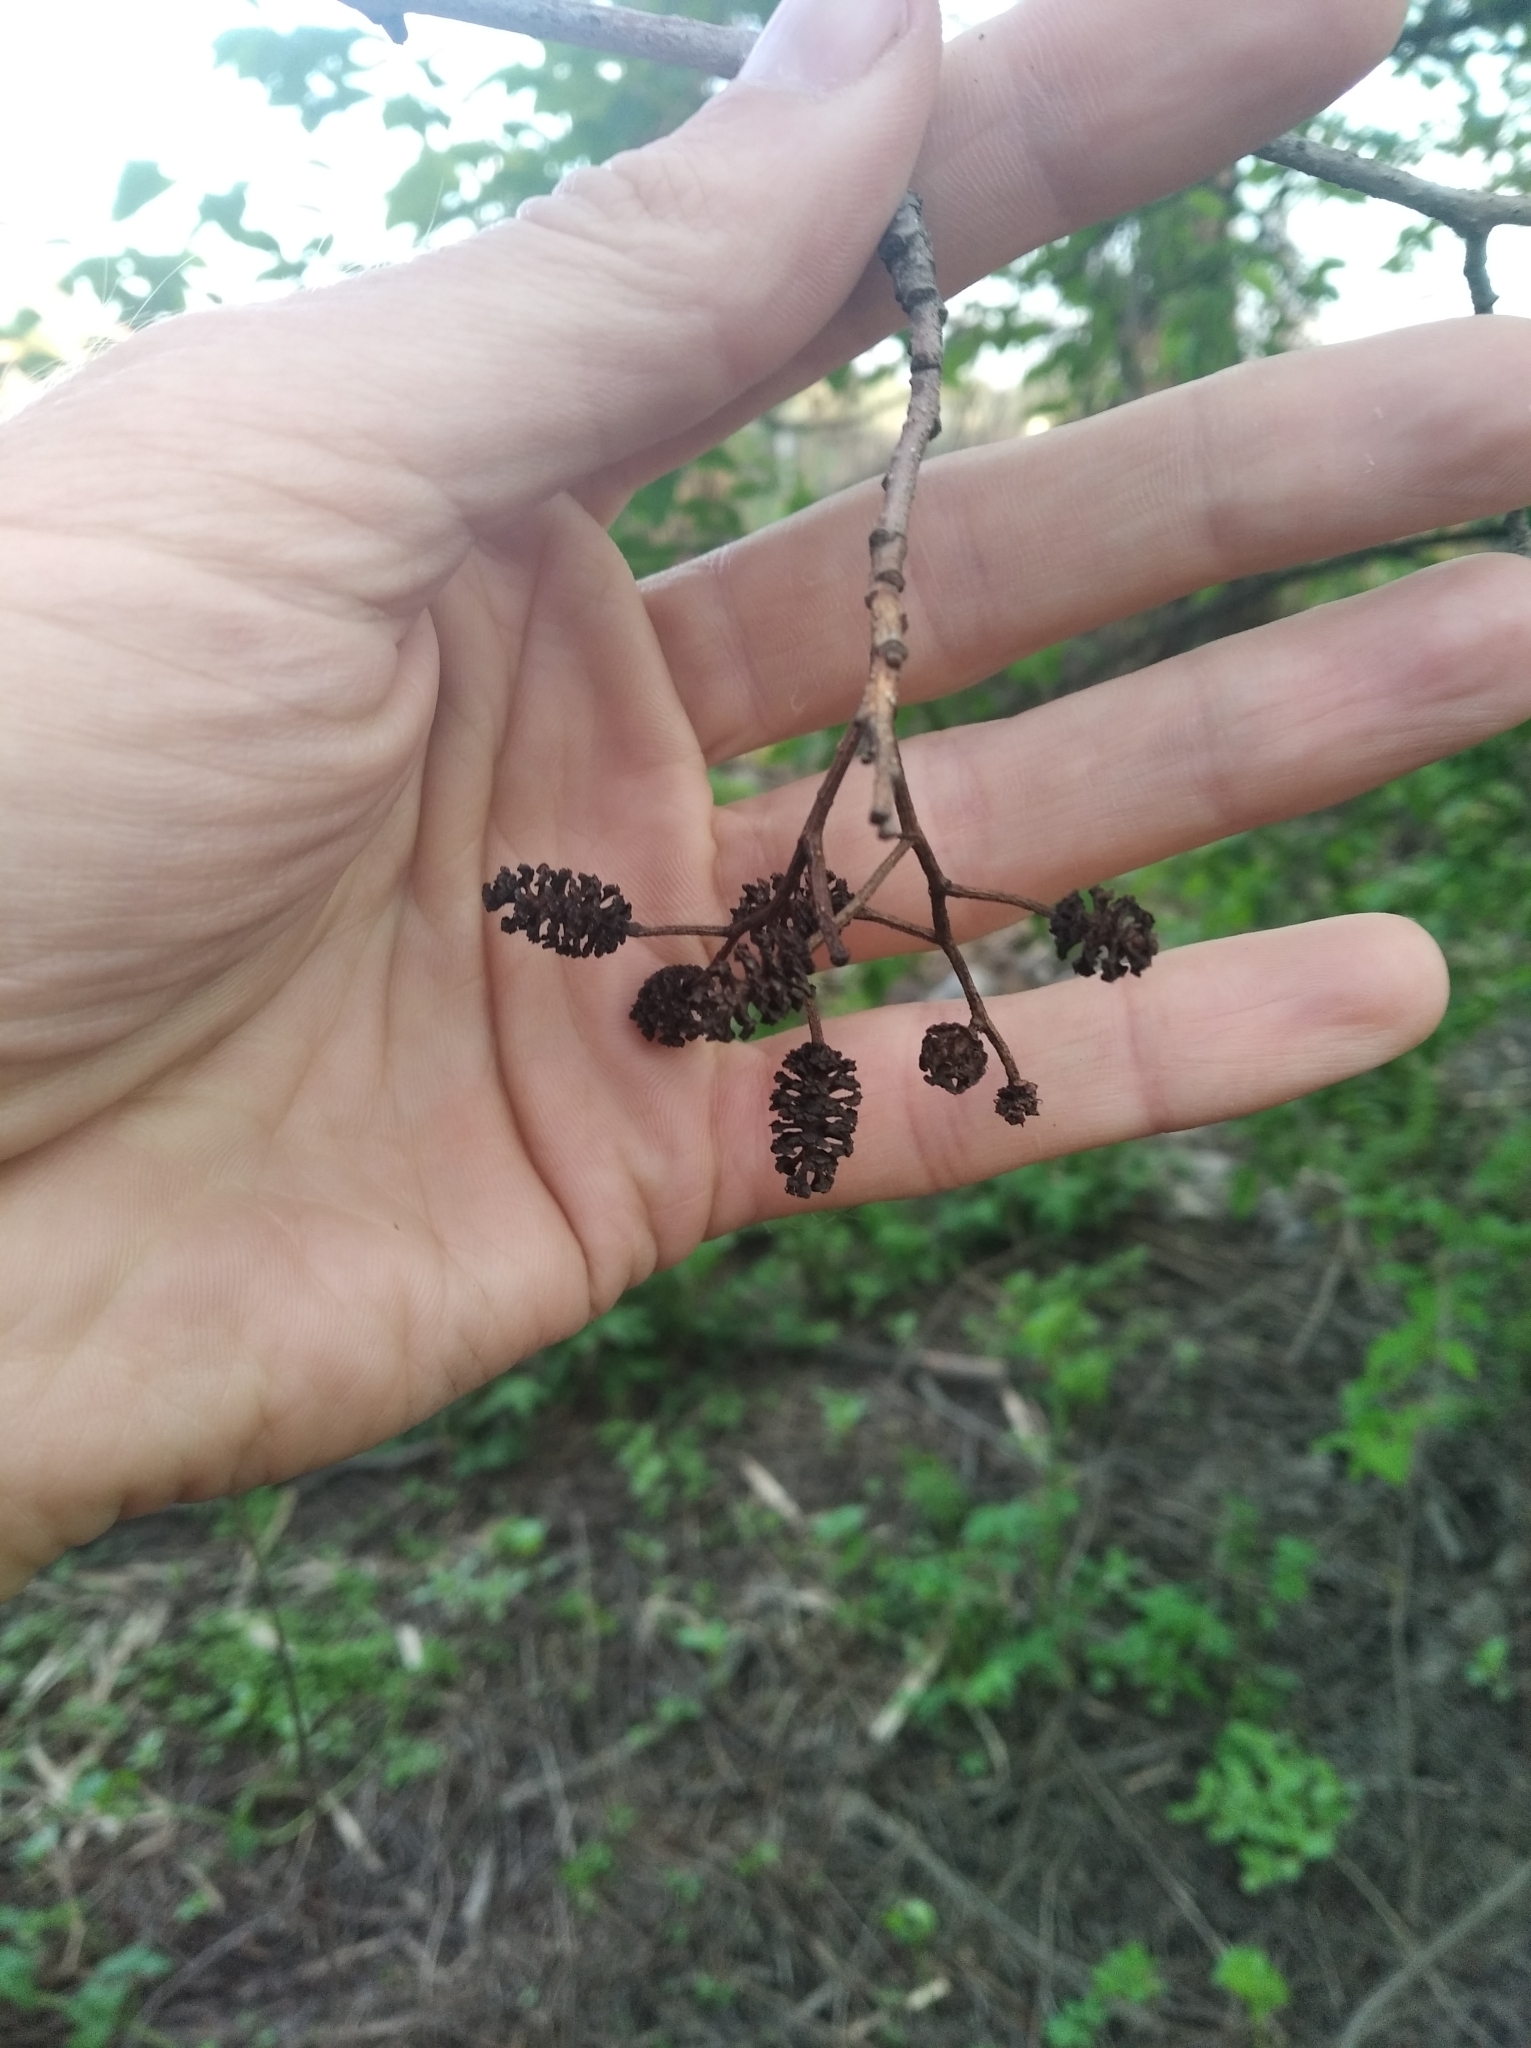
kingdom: Plantae
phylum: Tracheophyta
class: Magnoliopsida
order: Fagales
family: Betulaceae
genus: Alnus
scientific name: Alnus glutinosa
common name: Black alder
